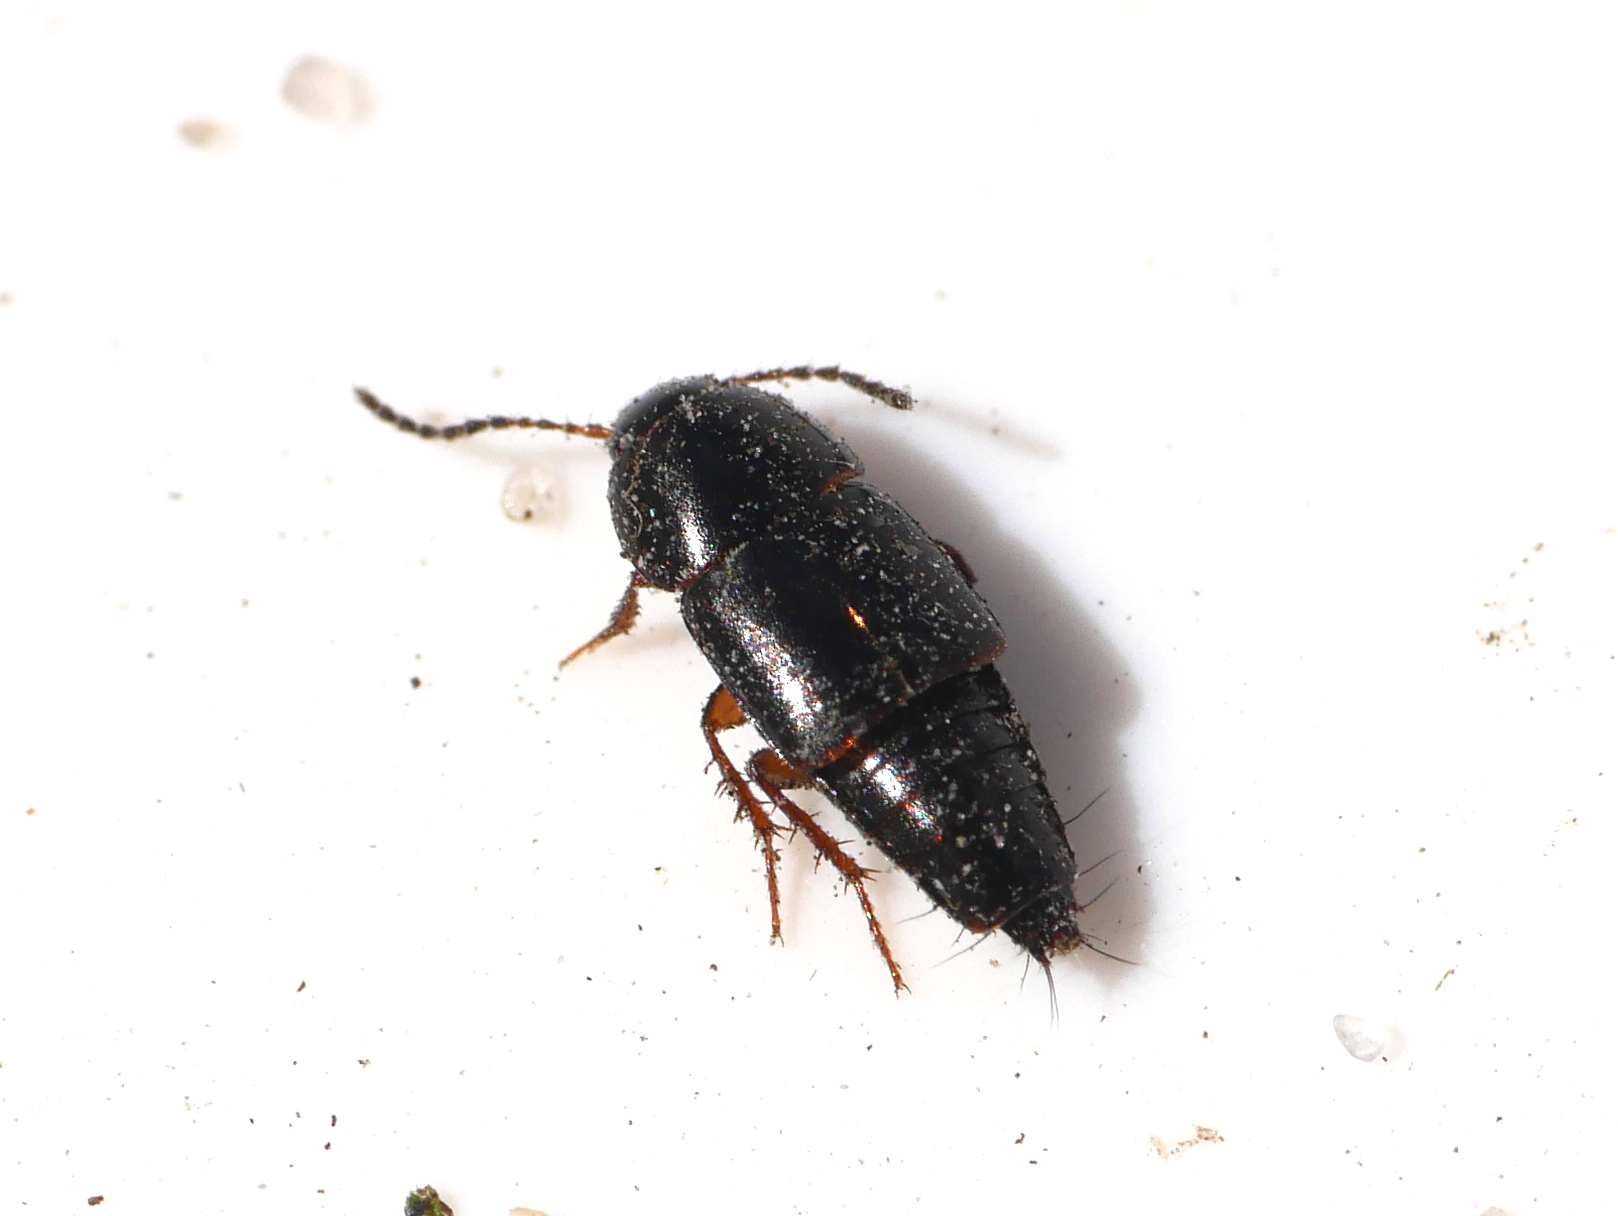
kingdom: Animalia
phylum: Arthropoda
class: Insecta
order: Coleoptera
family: Staphylinidae
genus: Tachinus
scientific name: Tachinus rufipes
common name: Rove beetle
